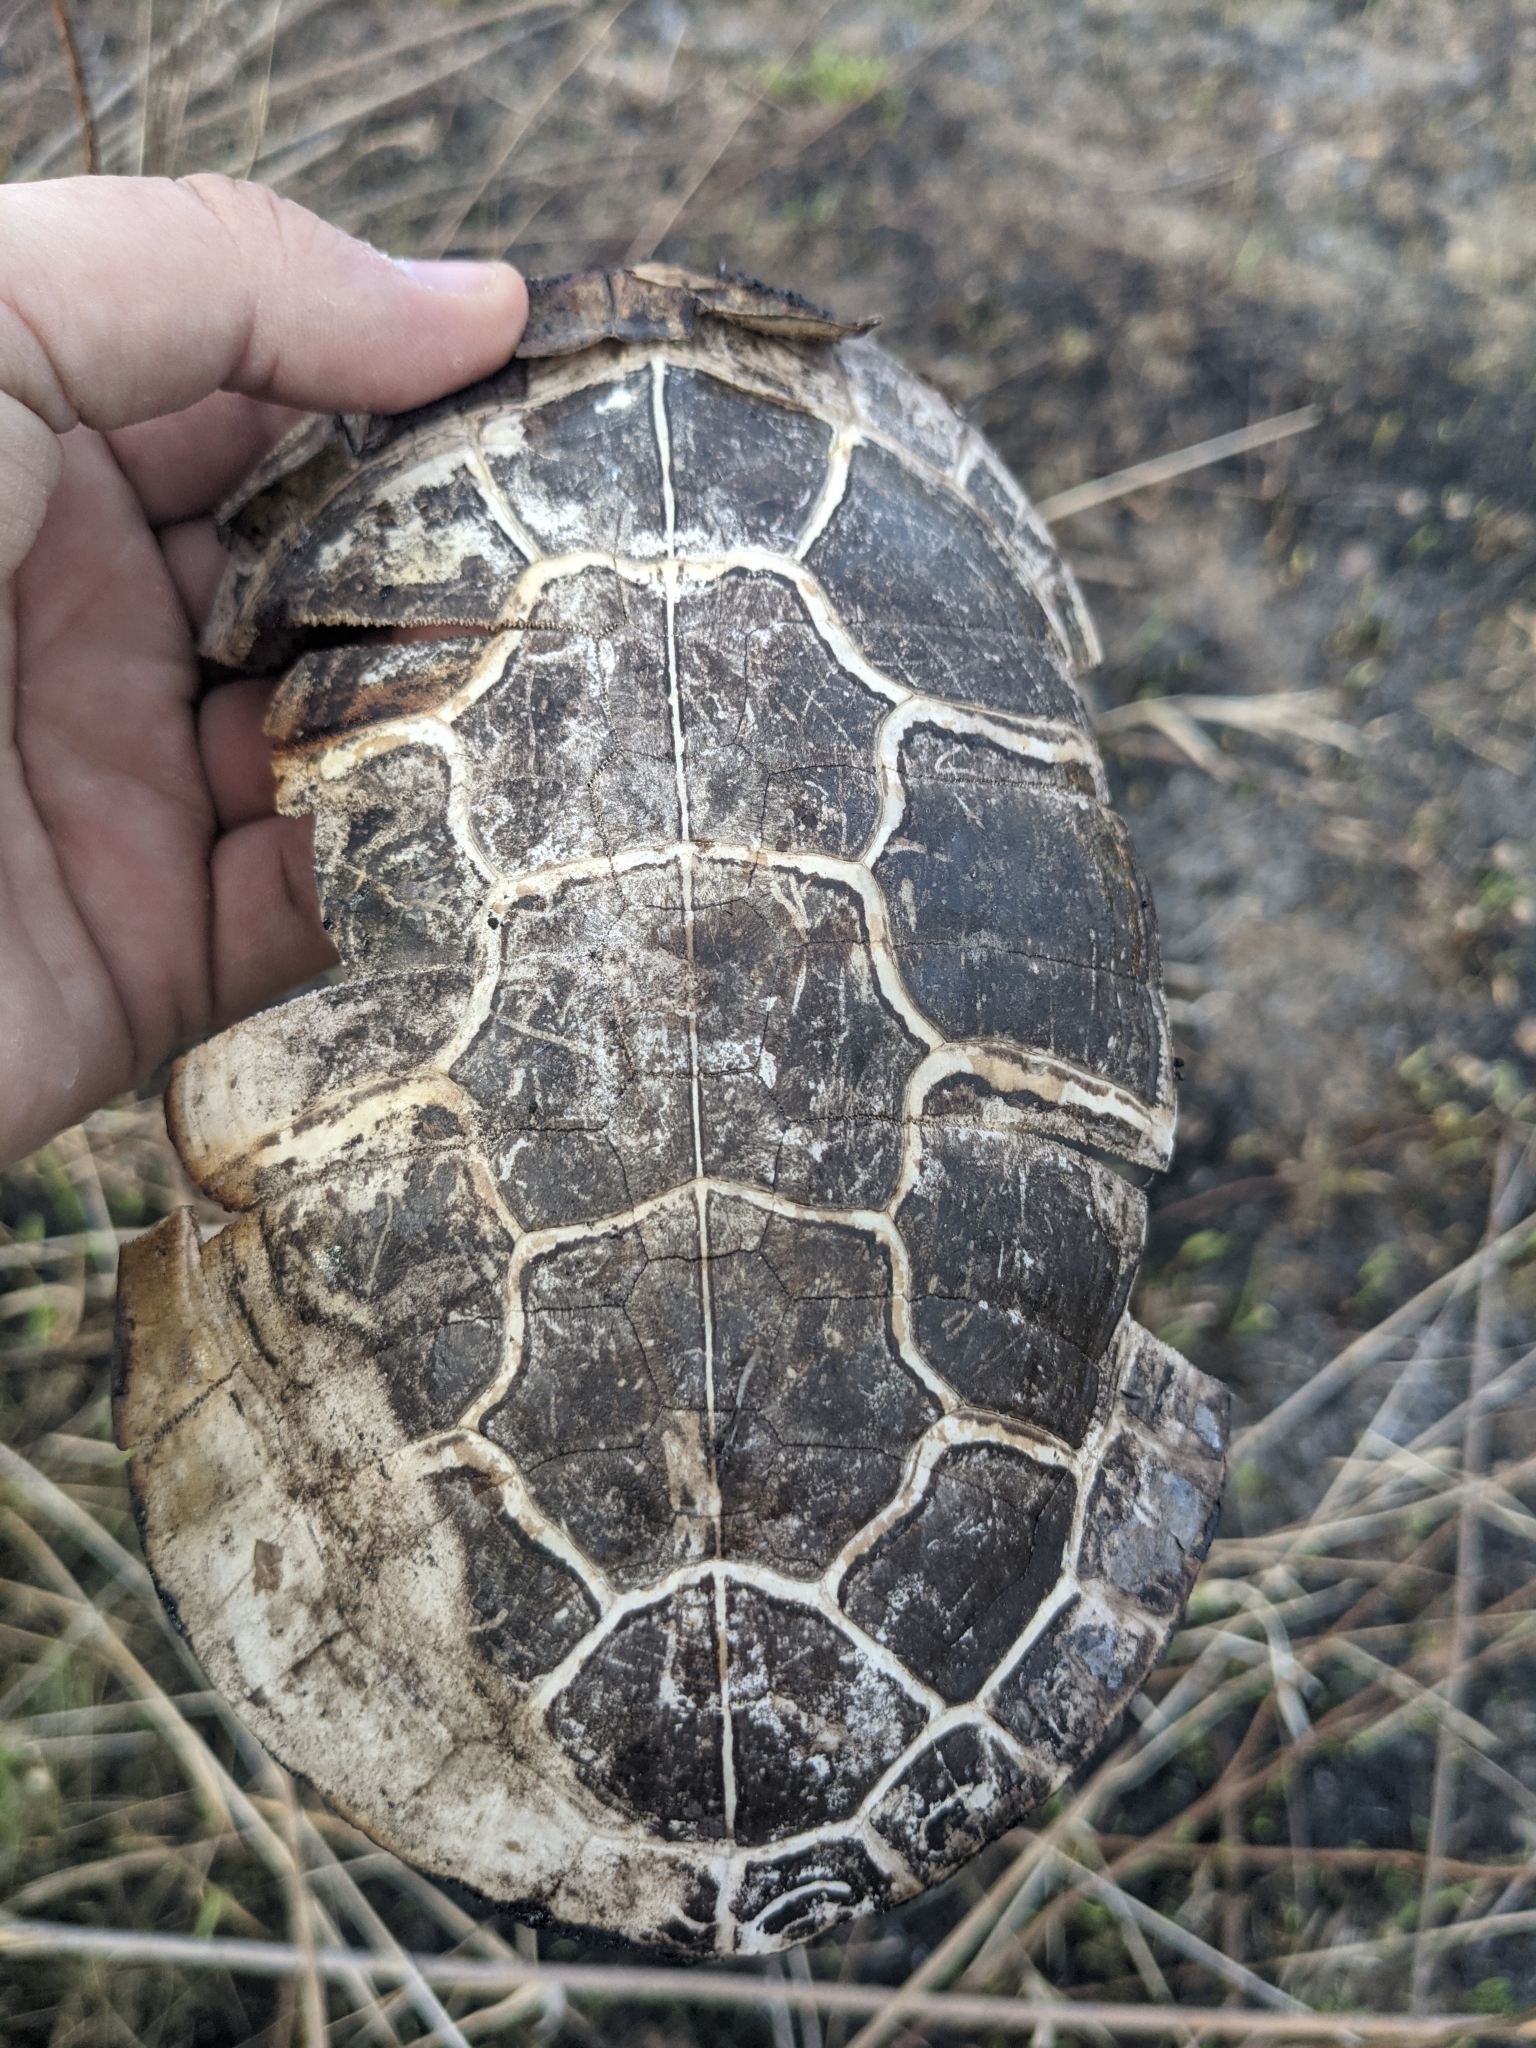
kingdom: Animalia
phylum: Chordata
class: Testudines
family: Emydidae
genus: Chrysemys
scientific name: Chrysemys picta
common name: Painted turtle
